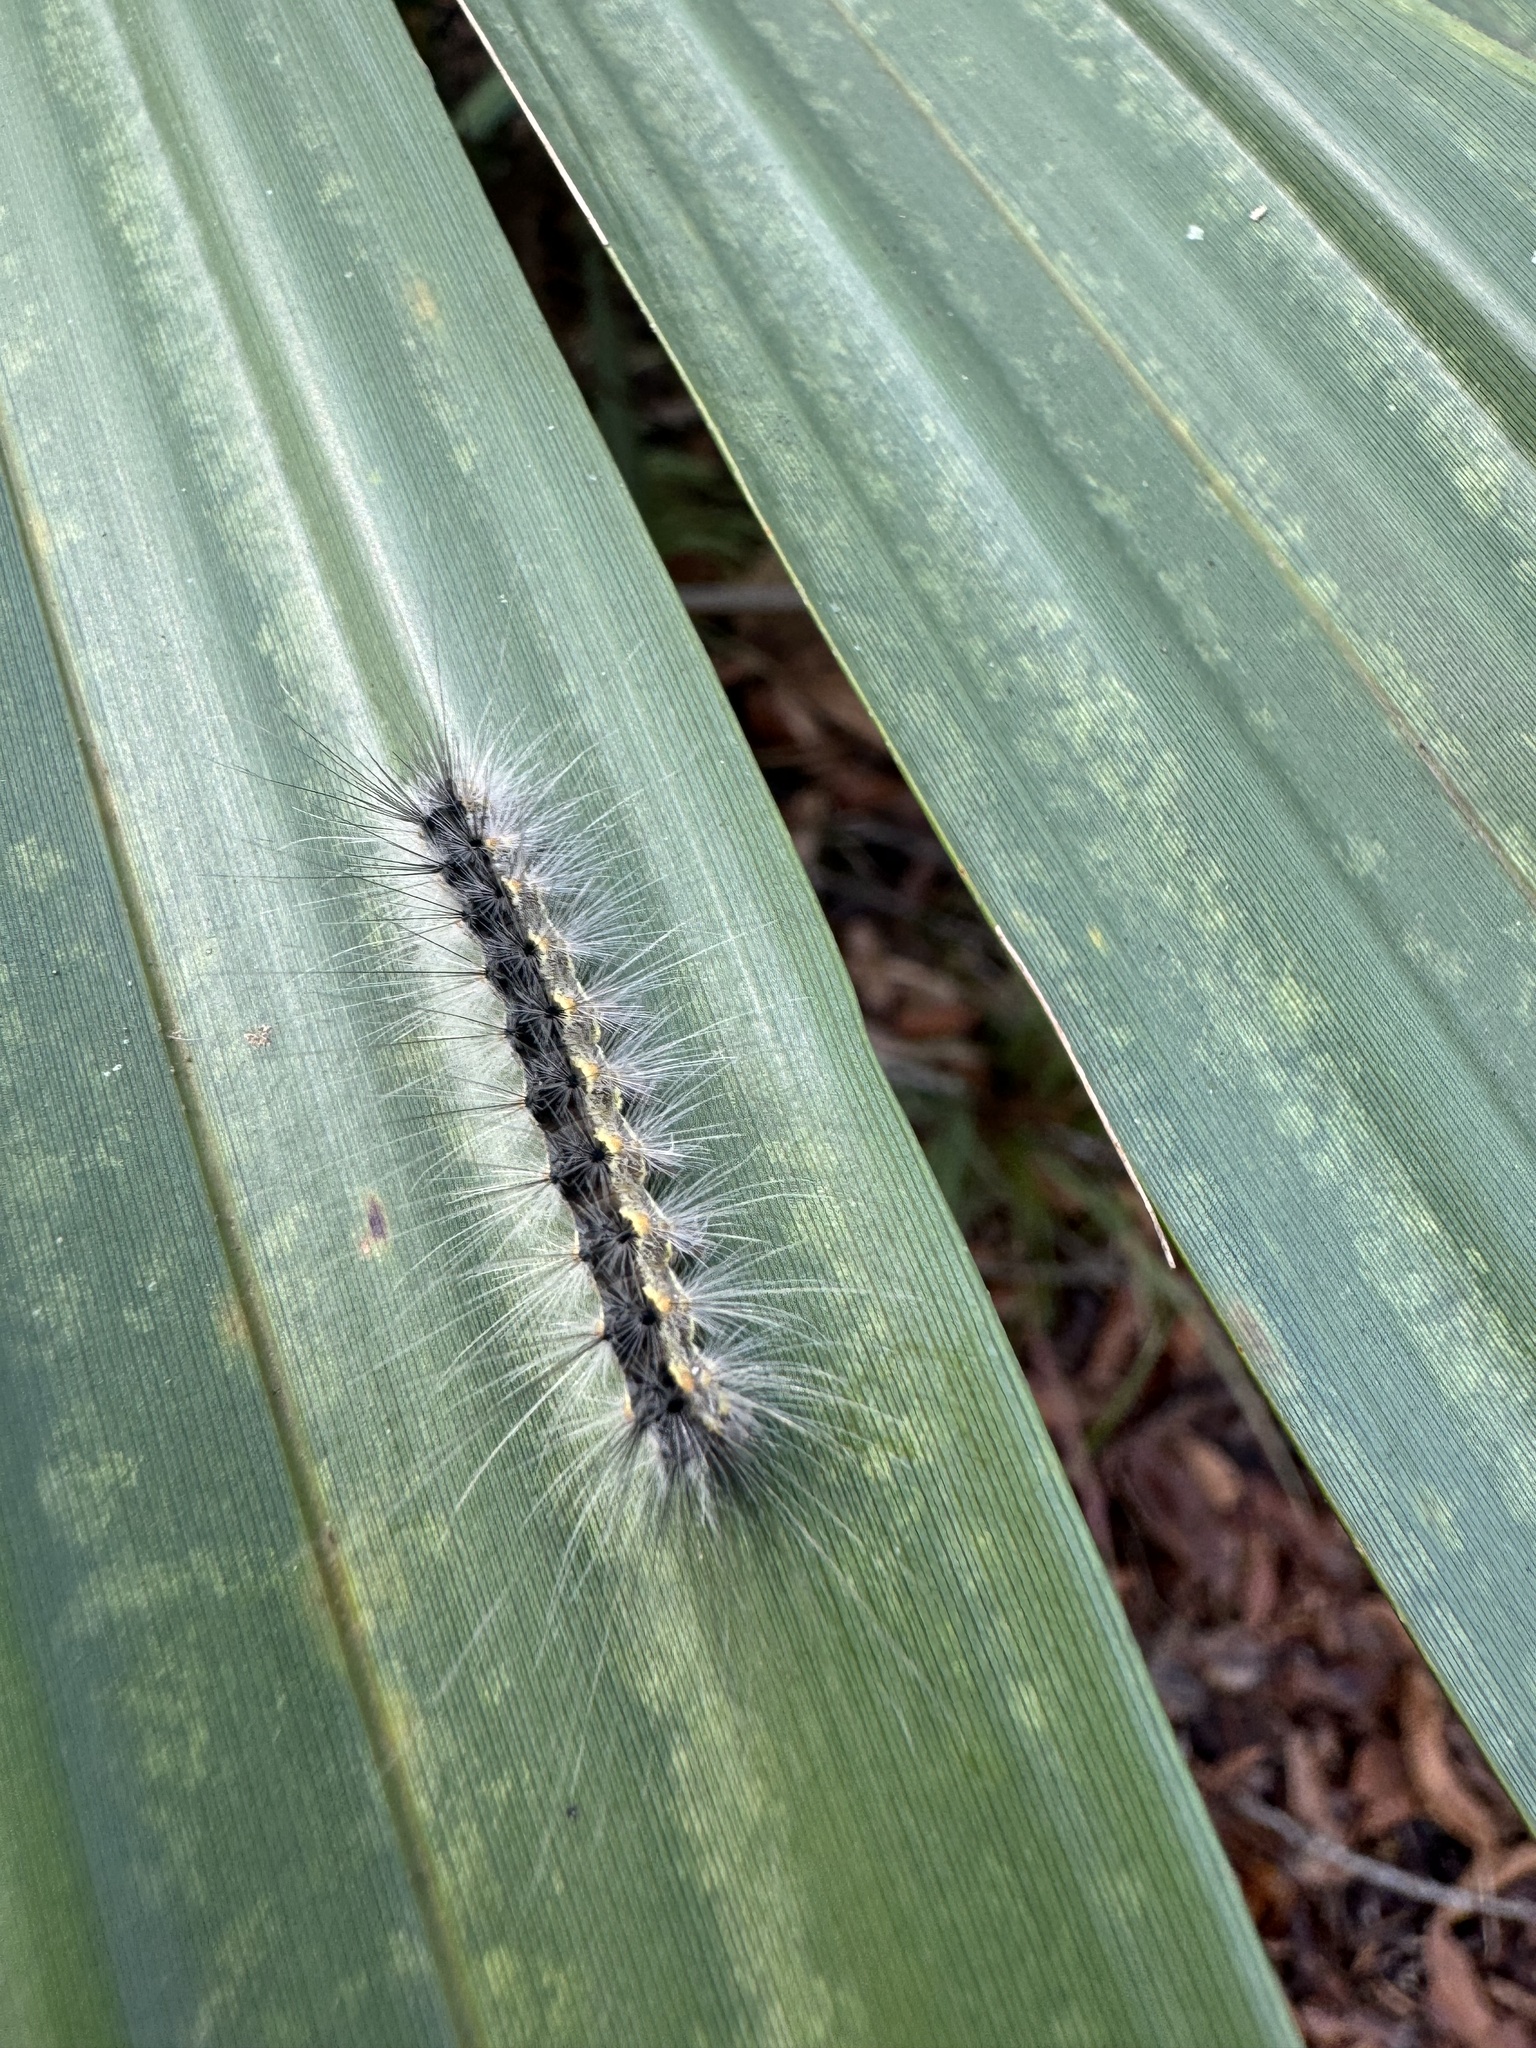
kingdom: Animalia
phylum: Arthropoda
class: Insecta
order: Lepidoptera
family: Erebidae
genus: Hyphantria
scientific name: Hyphantria cunea
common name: American white moth
